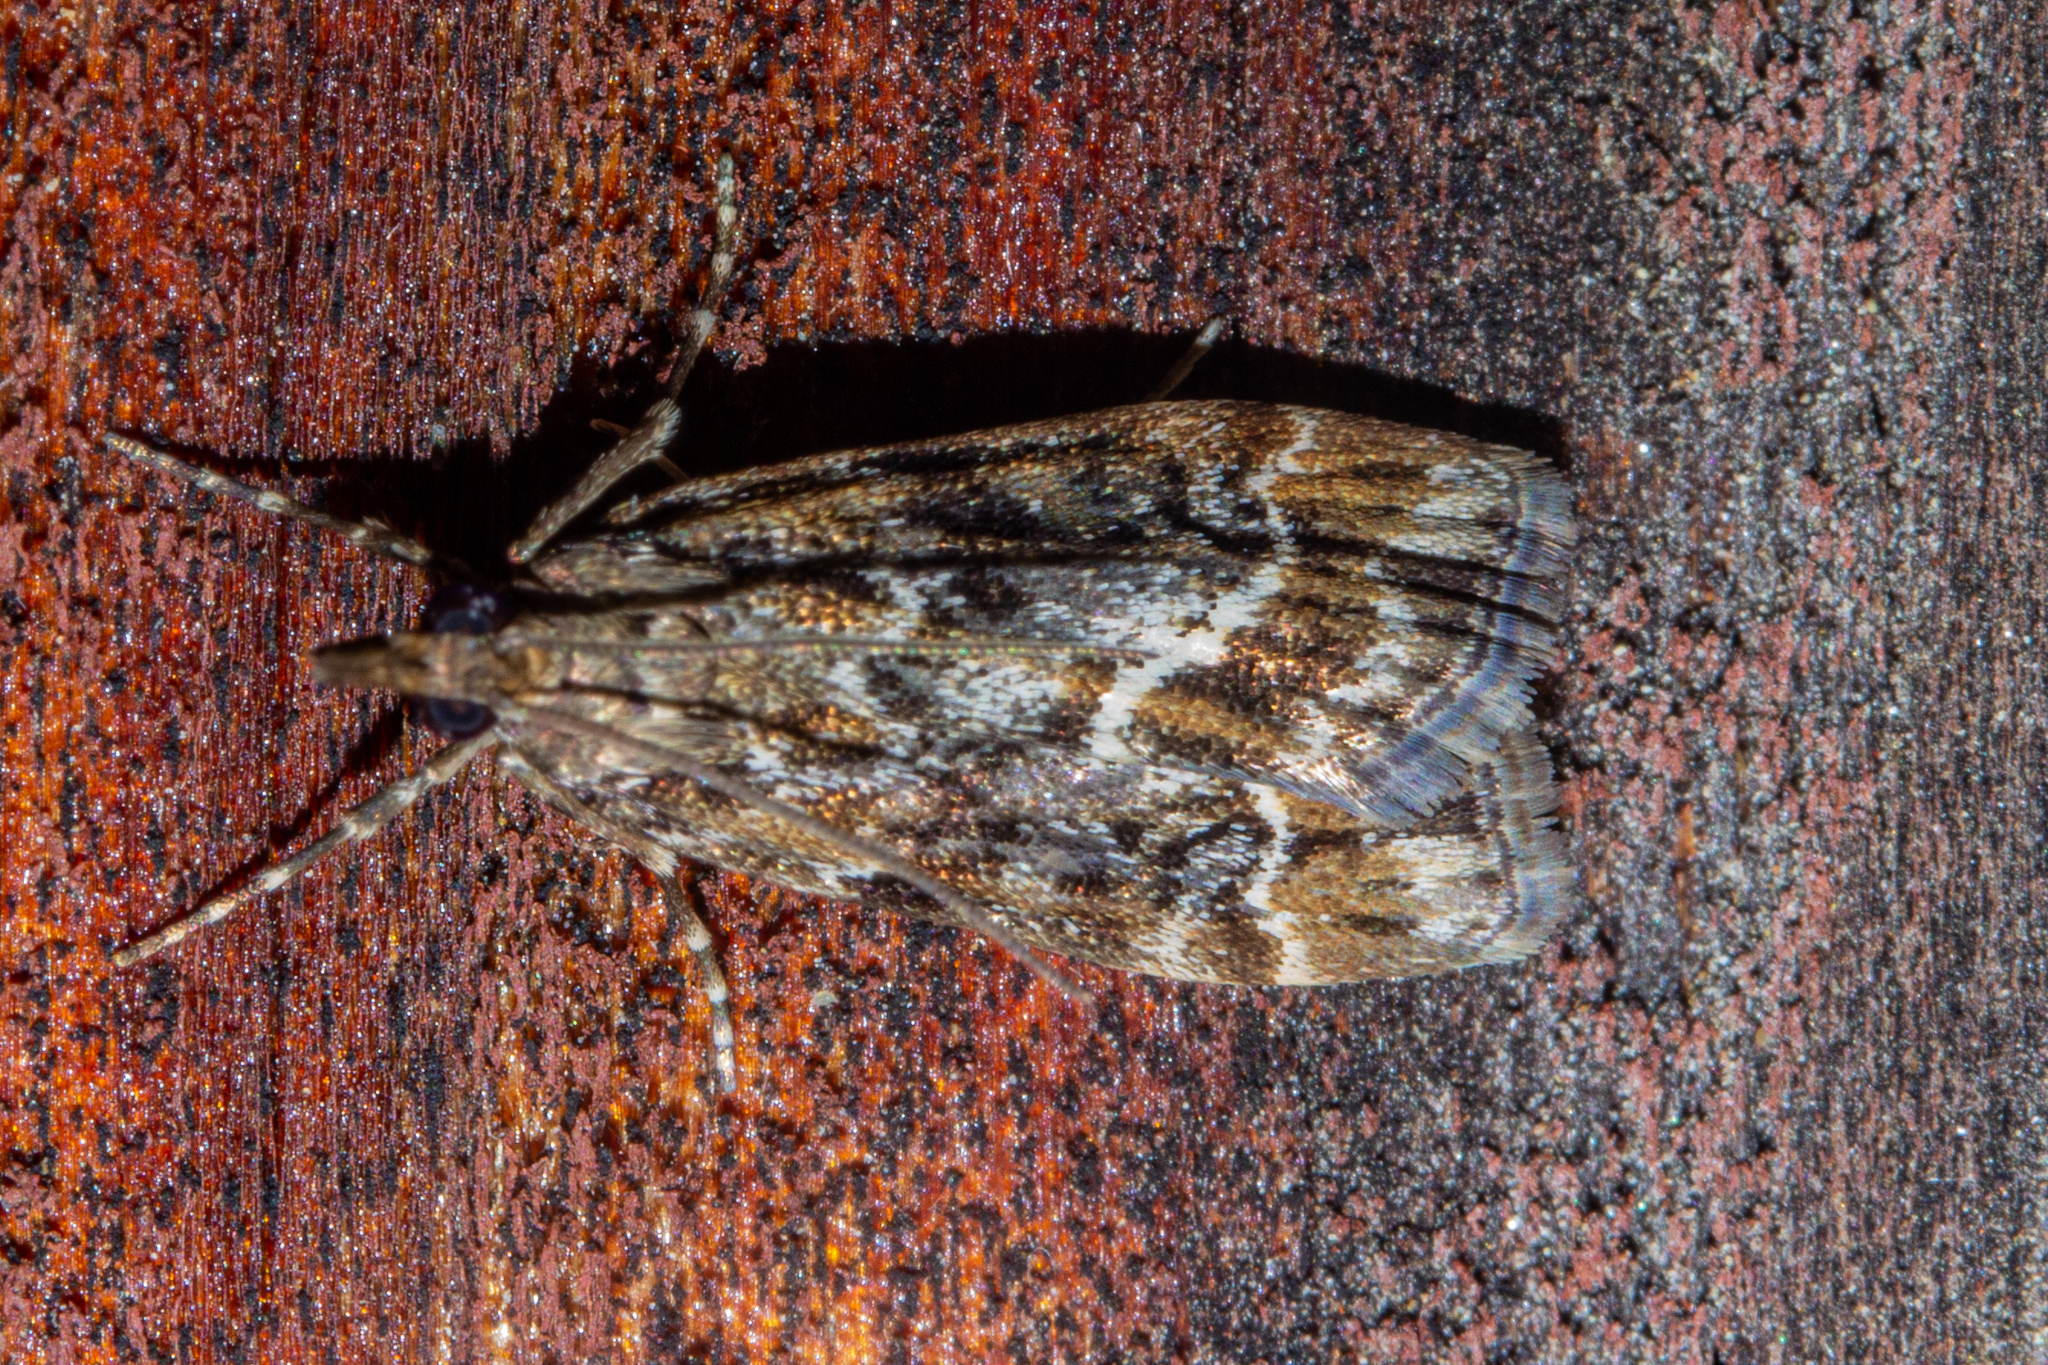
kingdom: Animalia
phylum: Arthropoda
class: Insecta
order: Lepidoptera
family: Crambidae
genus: Eudonia
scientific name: Eudonia legnota
